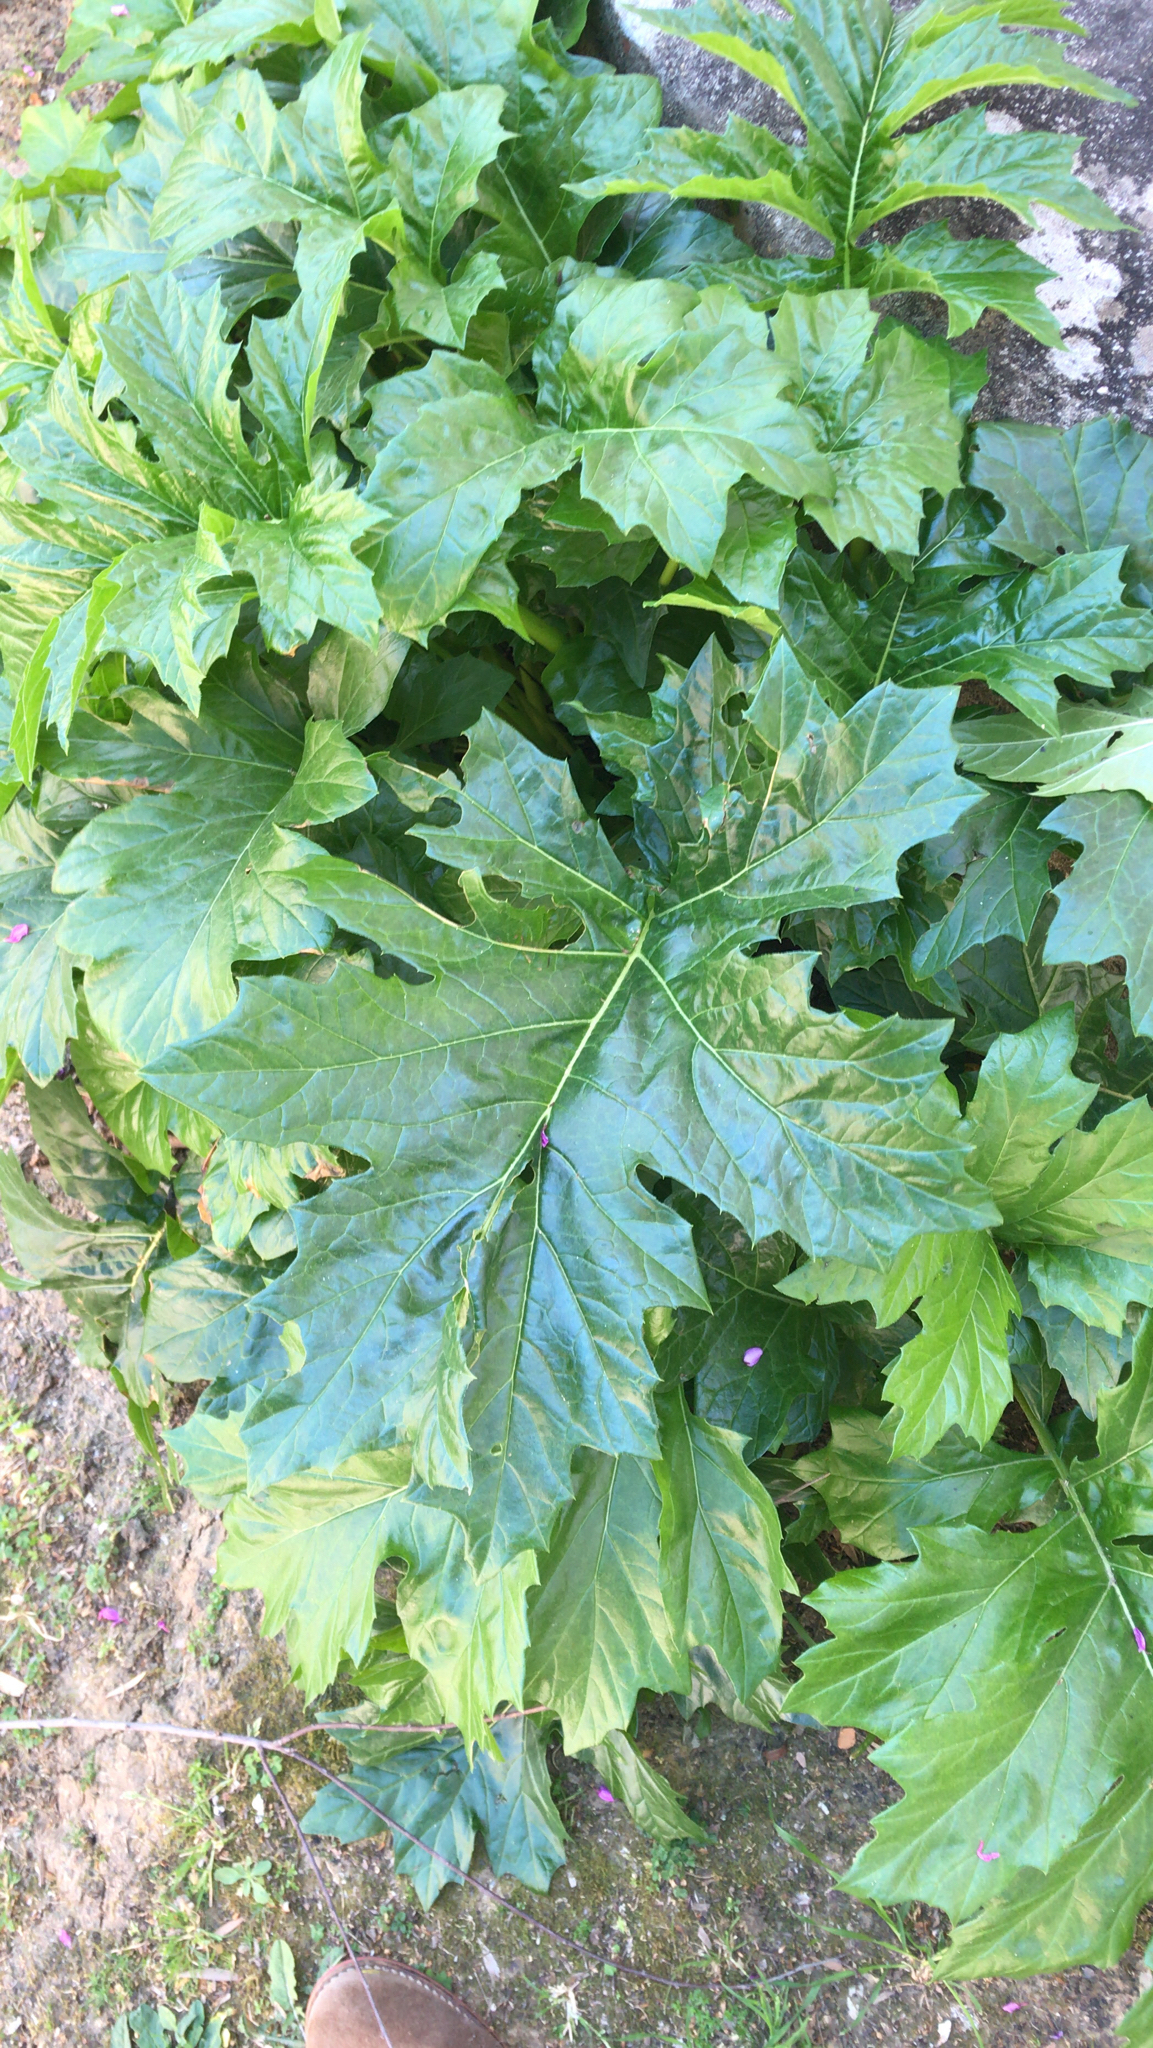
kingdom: Plantae
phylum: Tracheophyta
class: Magnoliopsida
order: Lamiales
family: Acanthaceae
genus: Acanthus
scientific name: Acanthus mollis
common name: Bear's-breech
